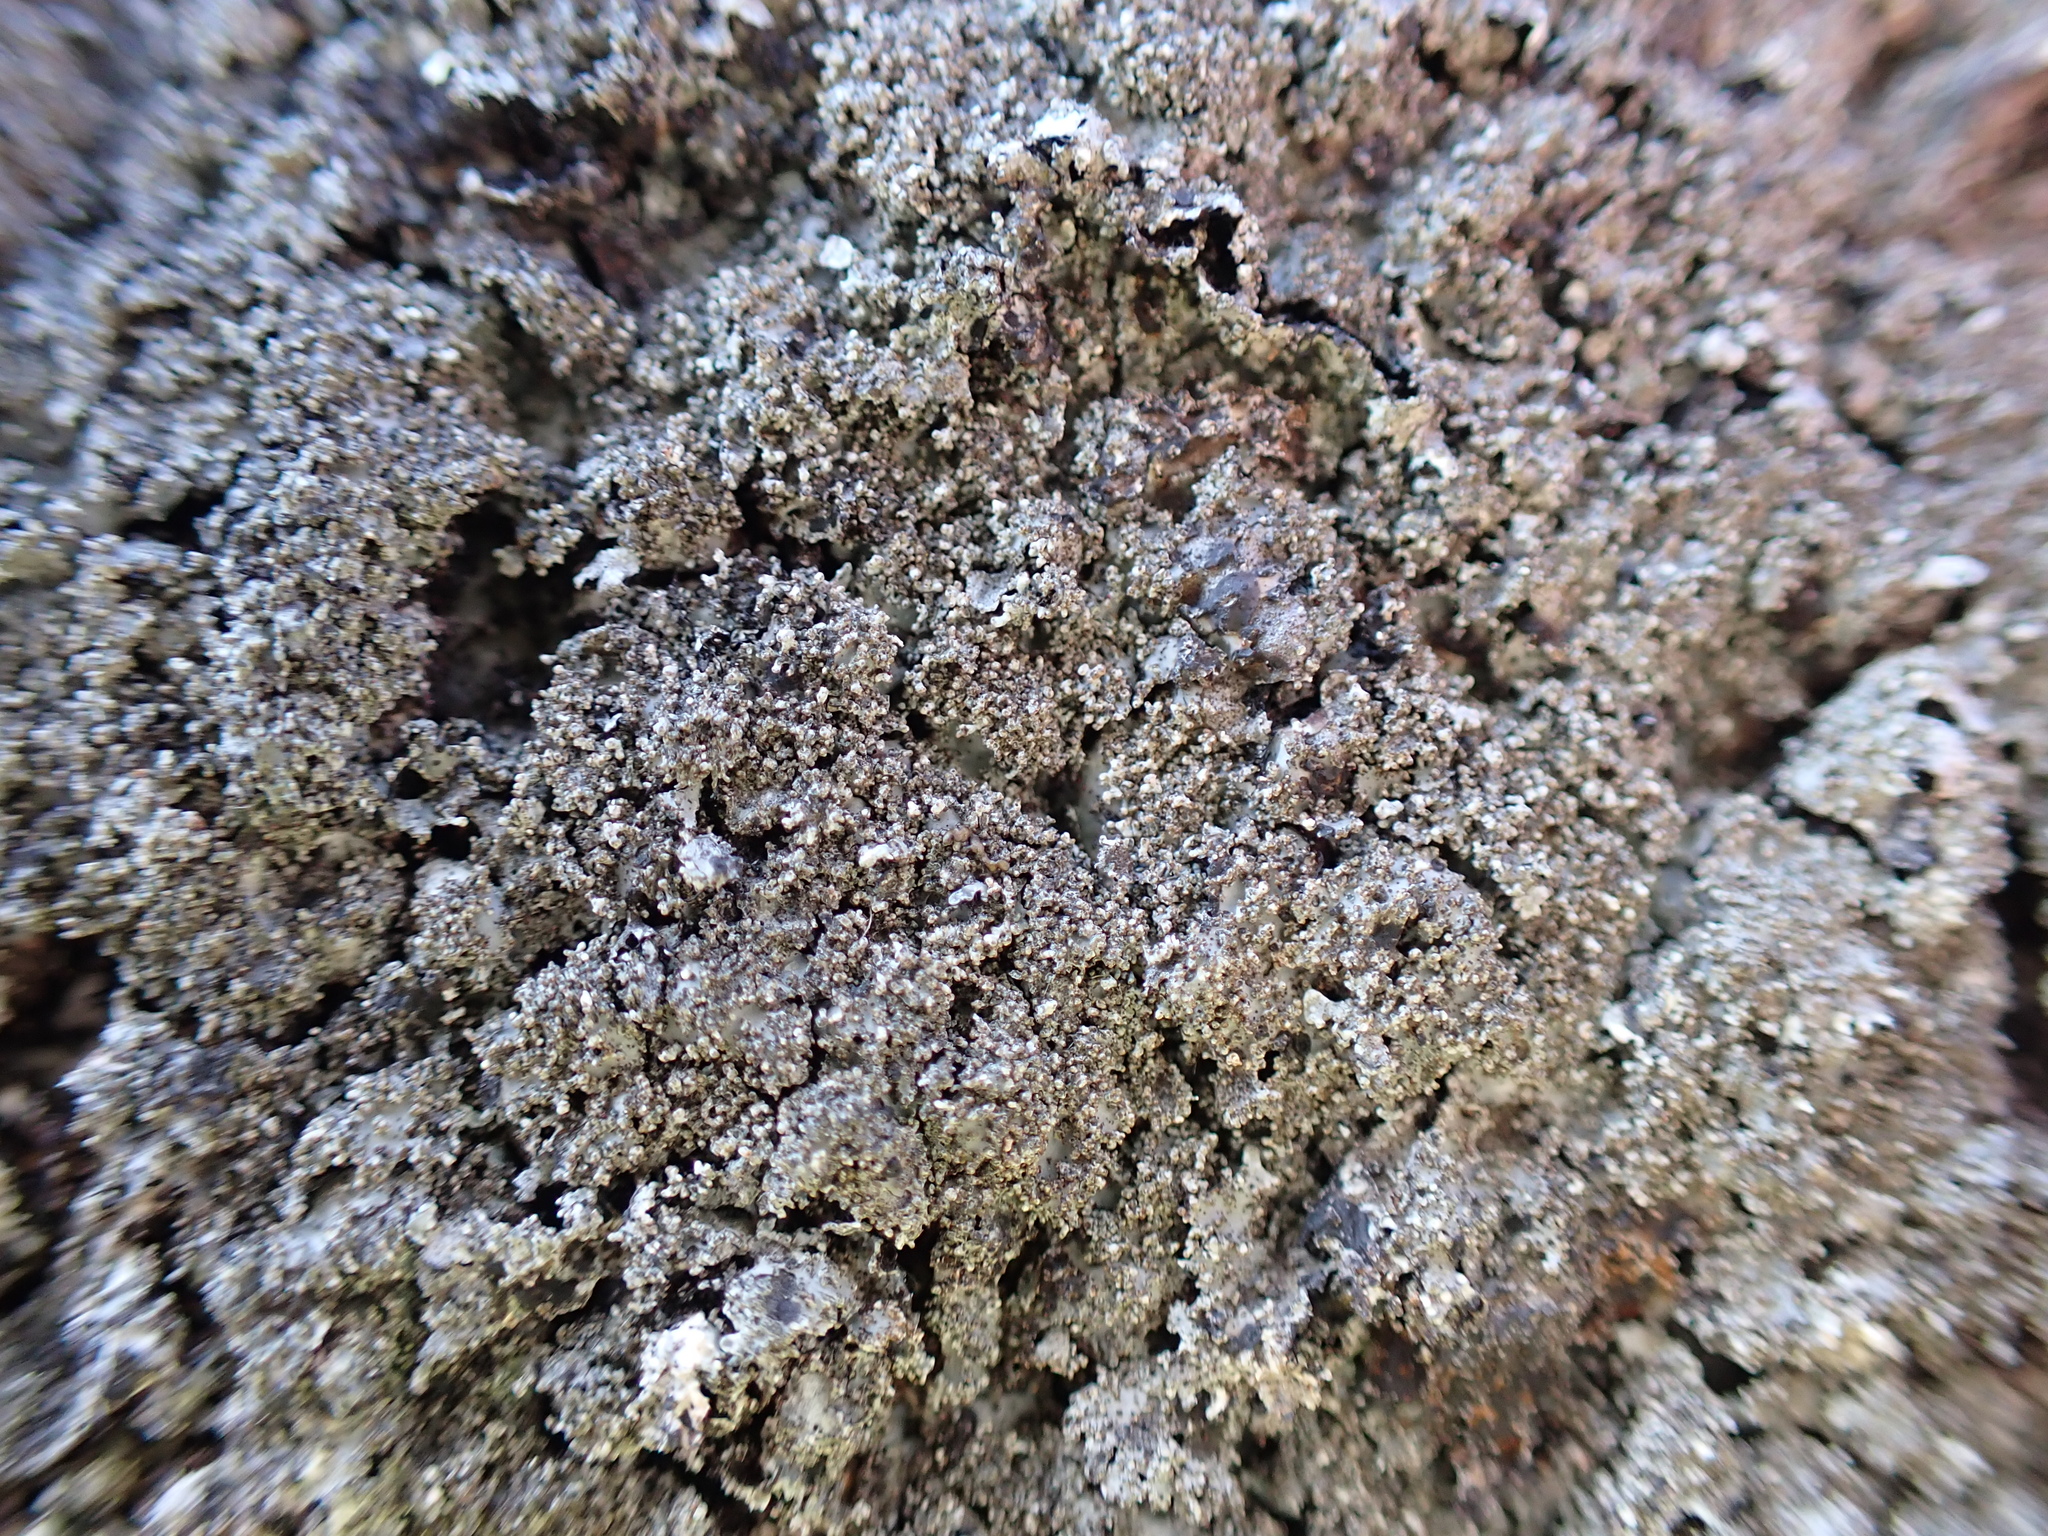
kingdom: Fungi
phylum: Ascomycota
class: Lecanoromycetes
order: Lecanorales
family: Parmeliaceae
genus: Parmelia
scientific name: Parmelia saxatilis
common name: Salted shield lichen
